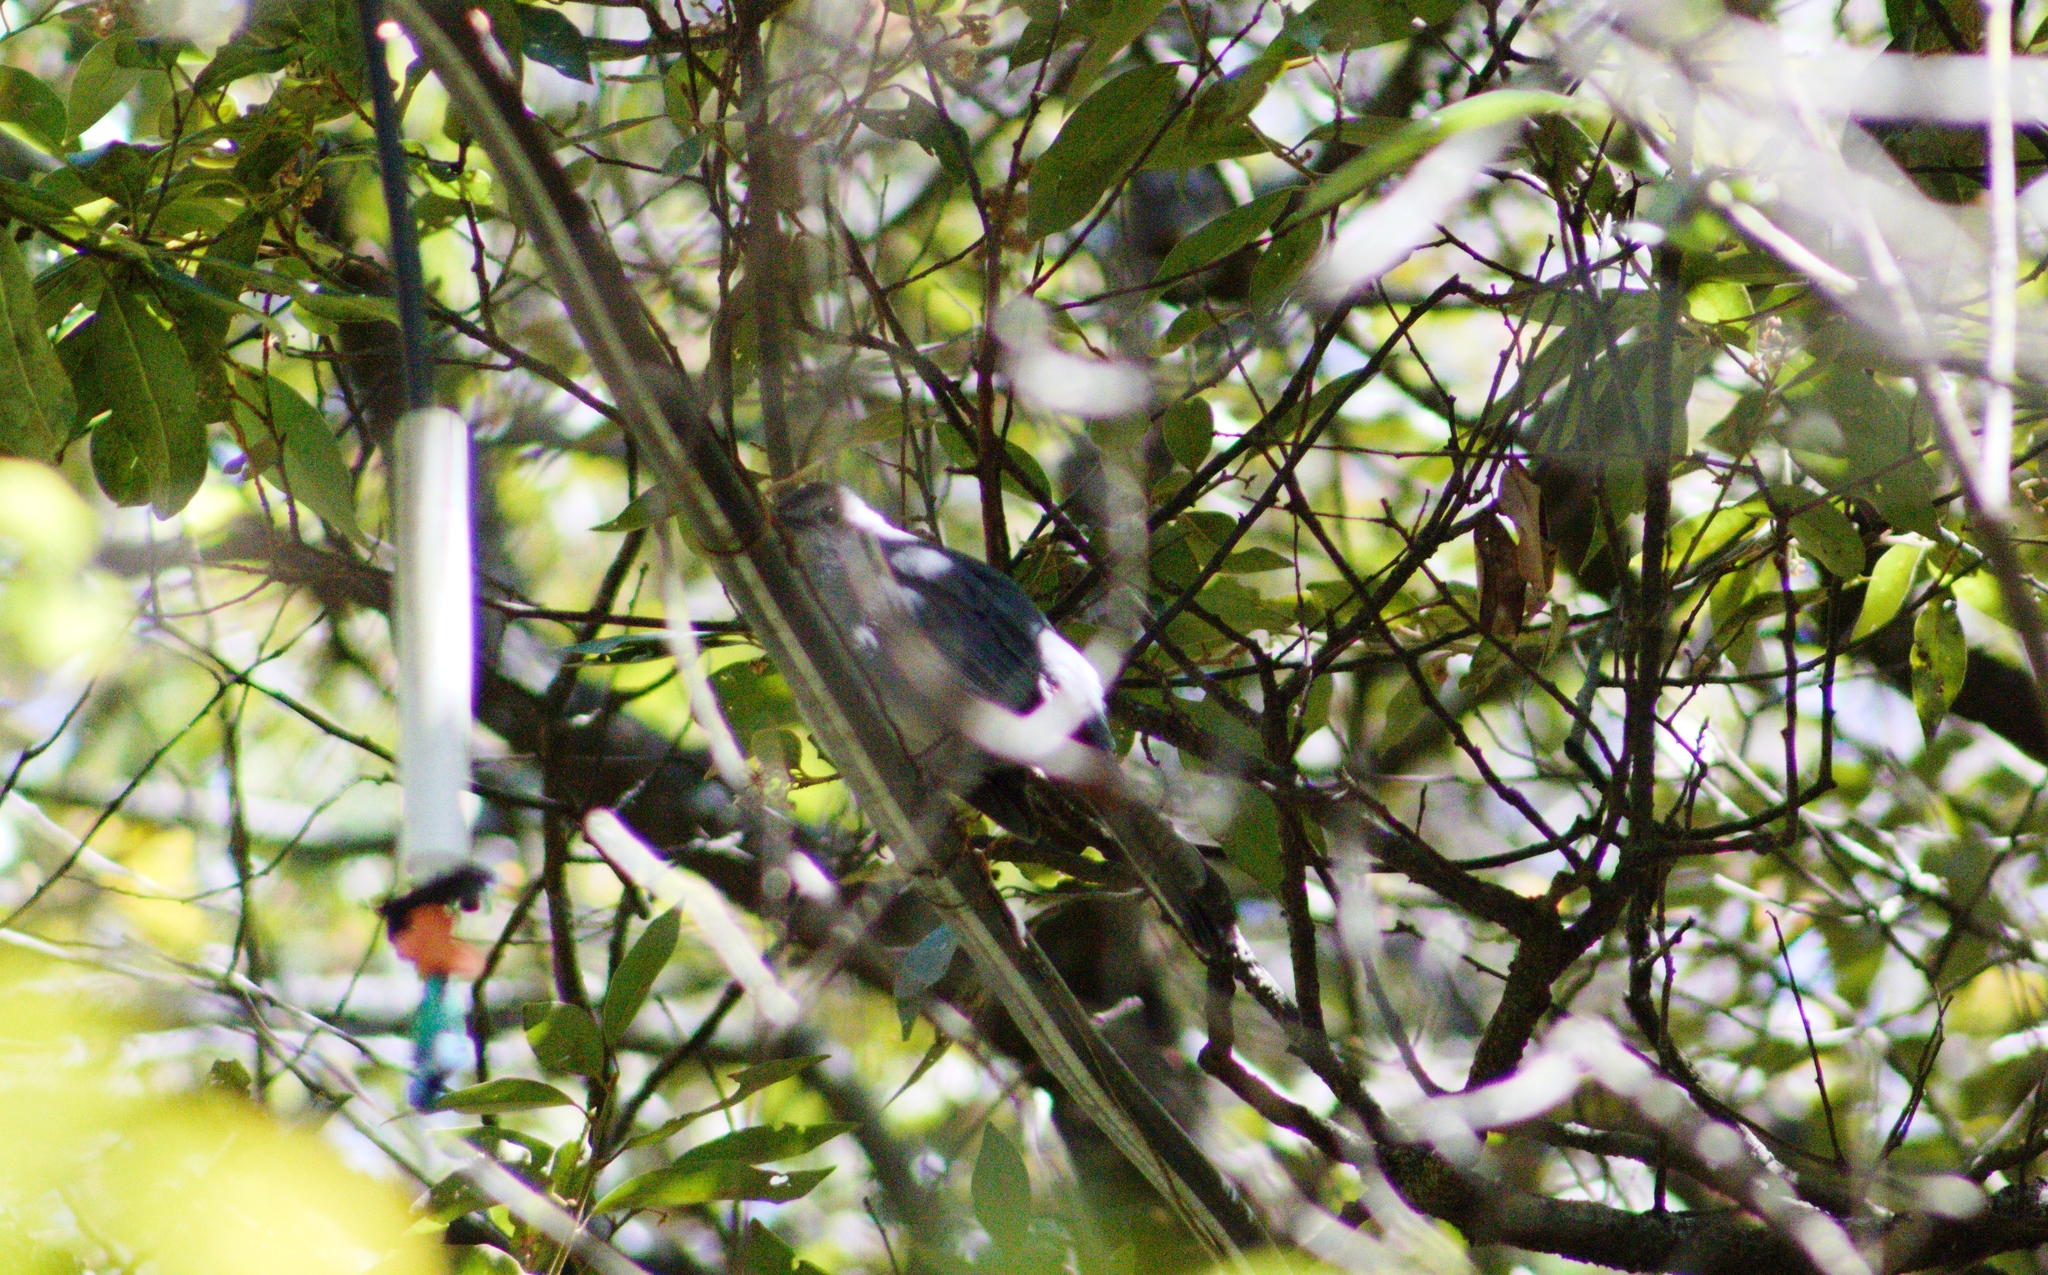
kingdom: Animalia
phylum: Chordata
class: Aves
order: Passeriformes
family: Mimidae
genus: Dumetella
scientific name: Dumetella carolinensis
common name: Gray catbird
